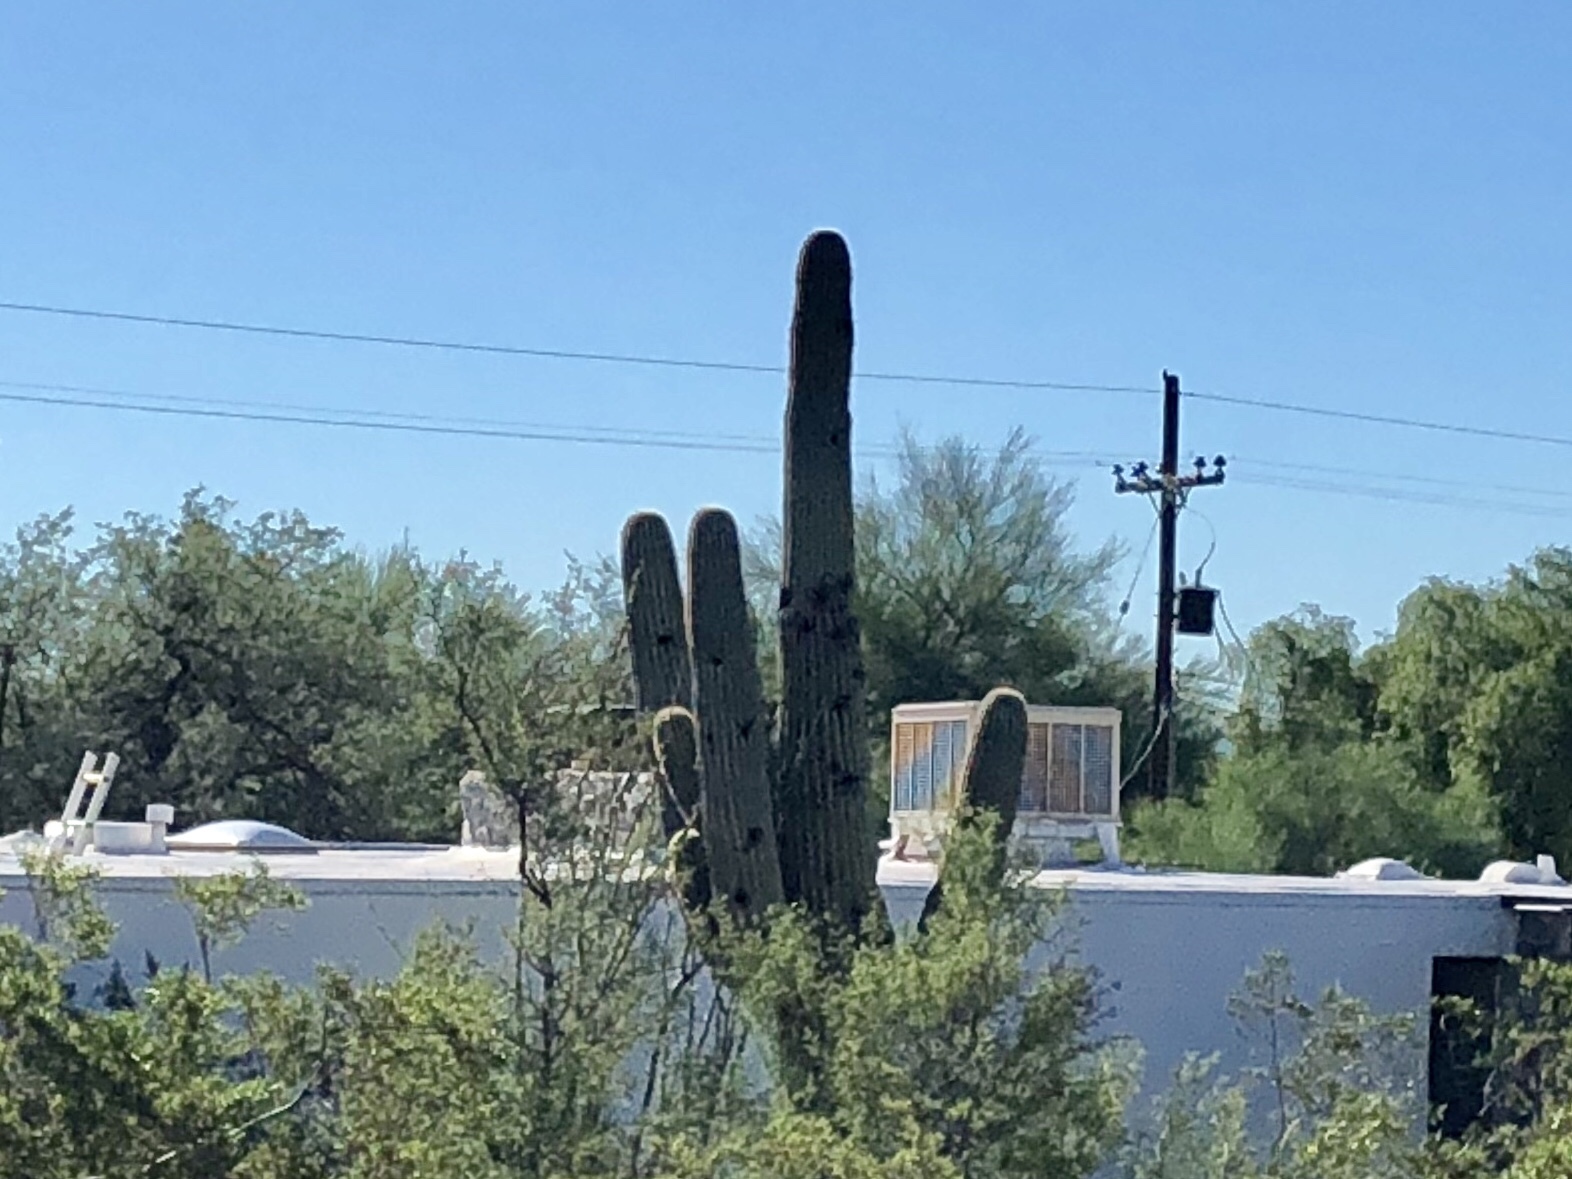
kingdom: Plantae
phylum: Tracheophyta
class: Magnoliopsida
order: Caryophyllales
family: Cactaceae
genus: Carnegiea
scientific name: Carnegiea gigantea
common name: Saguaro
